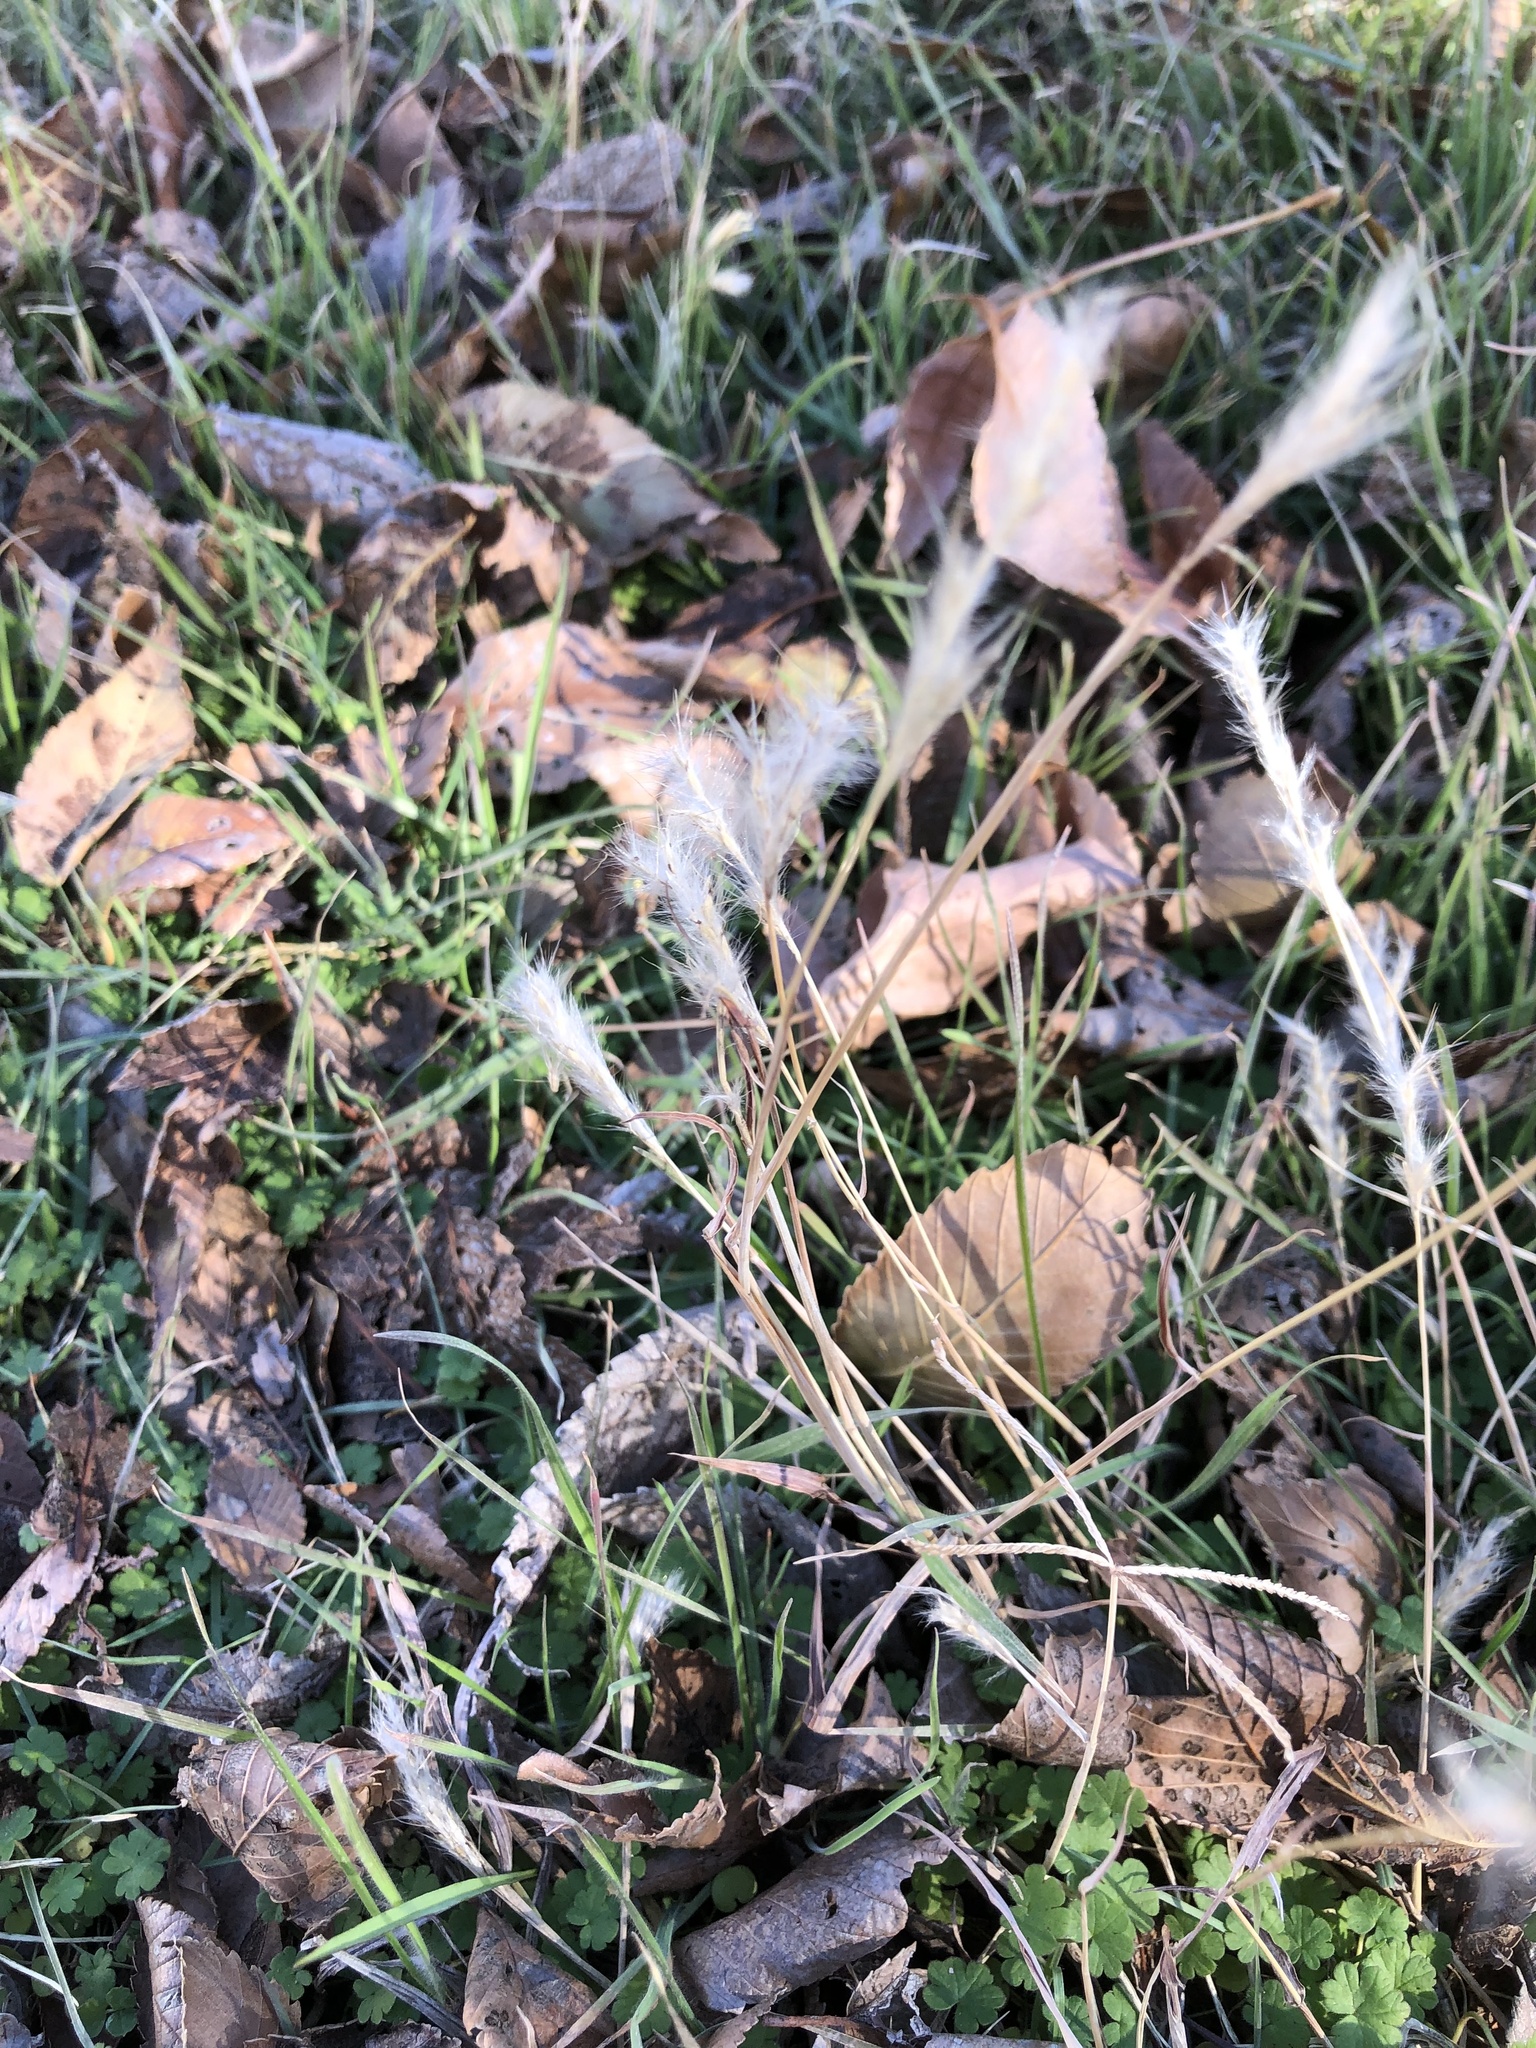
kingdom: Plantae
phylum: Tracheophyta
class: Liliopsida
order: Poales
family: Poaceae
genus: Bothriochloa
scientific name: Bothriochloa torreyana
